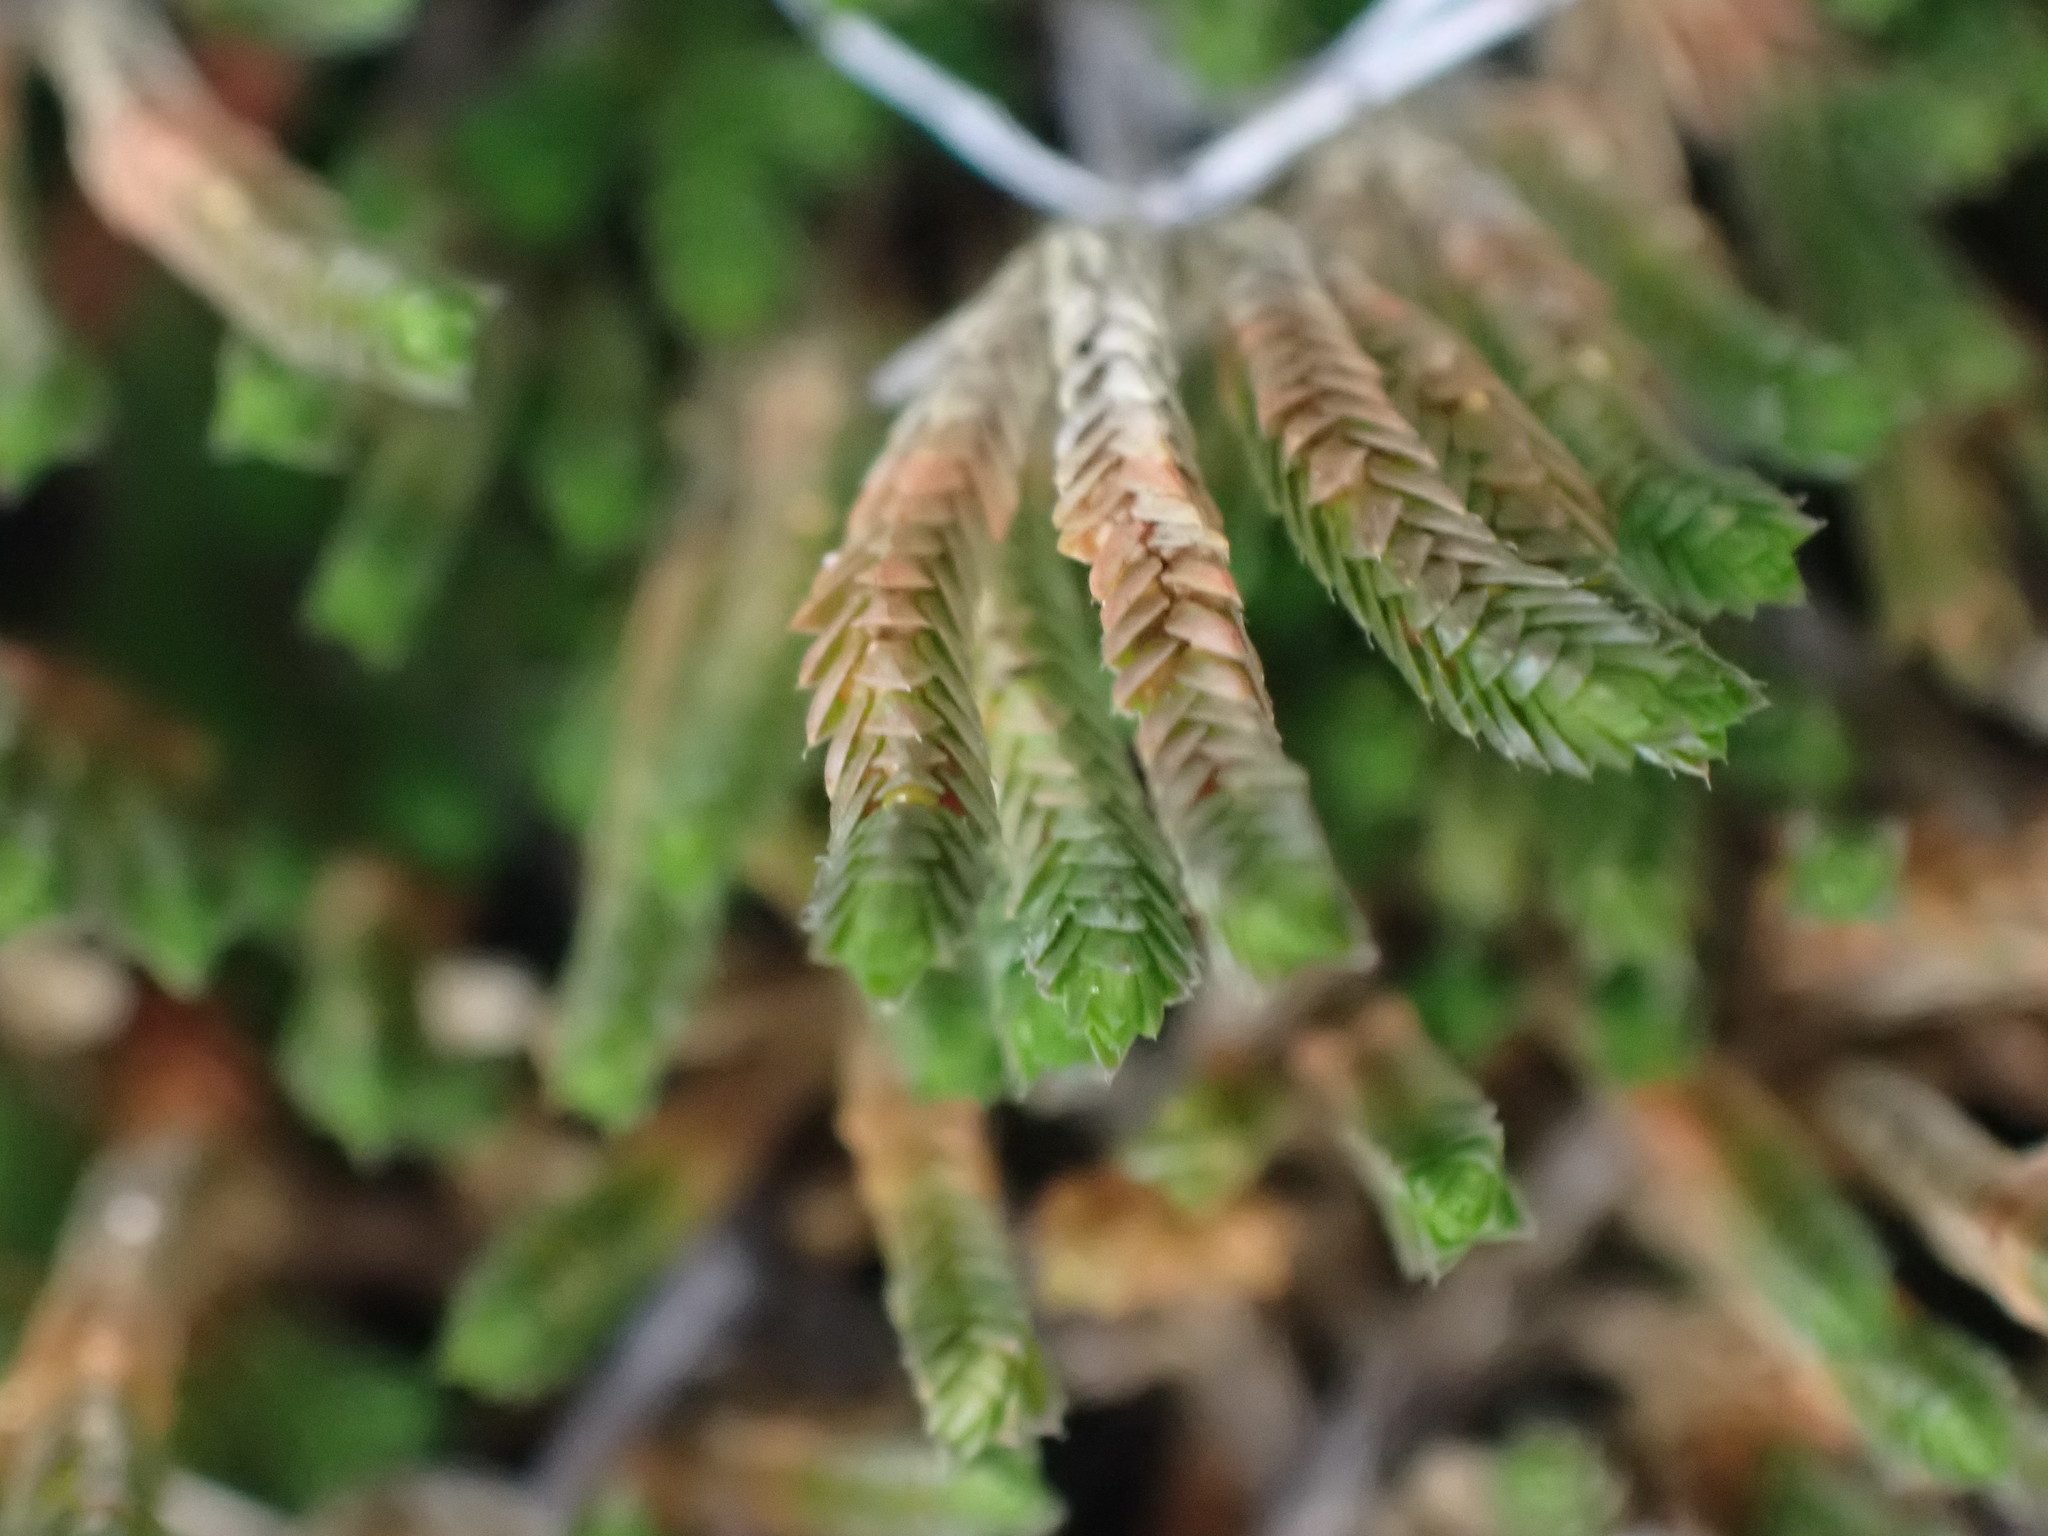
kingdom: Plantae
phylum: Tracheophyta
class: Lycopodiopsida
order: Selaginellales
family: Selaginellaceae
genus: Selaginella
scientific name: Selaginella wallacei
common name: Wallace's selaginella
